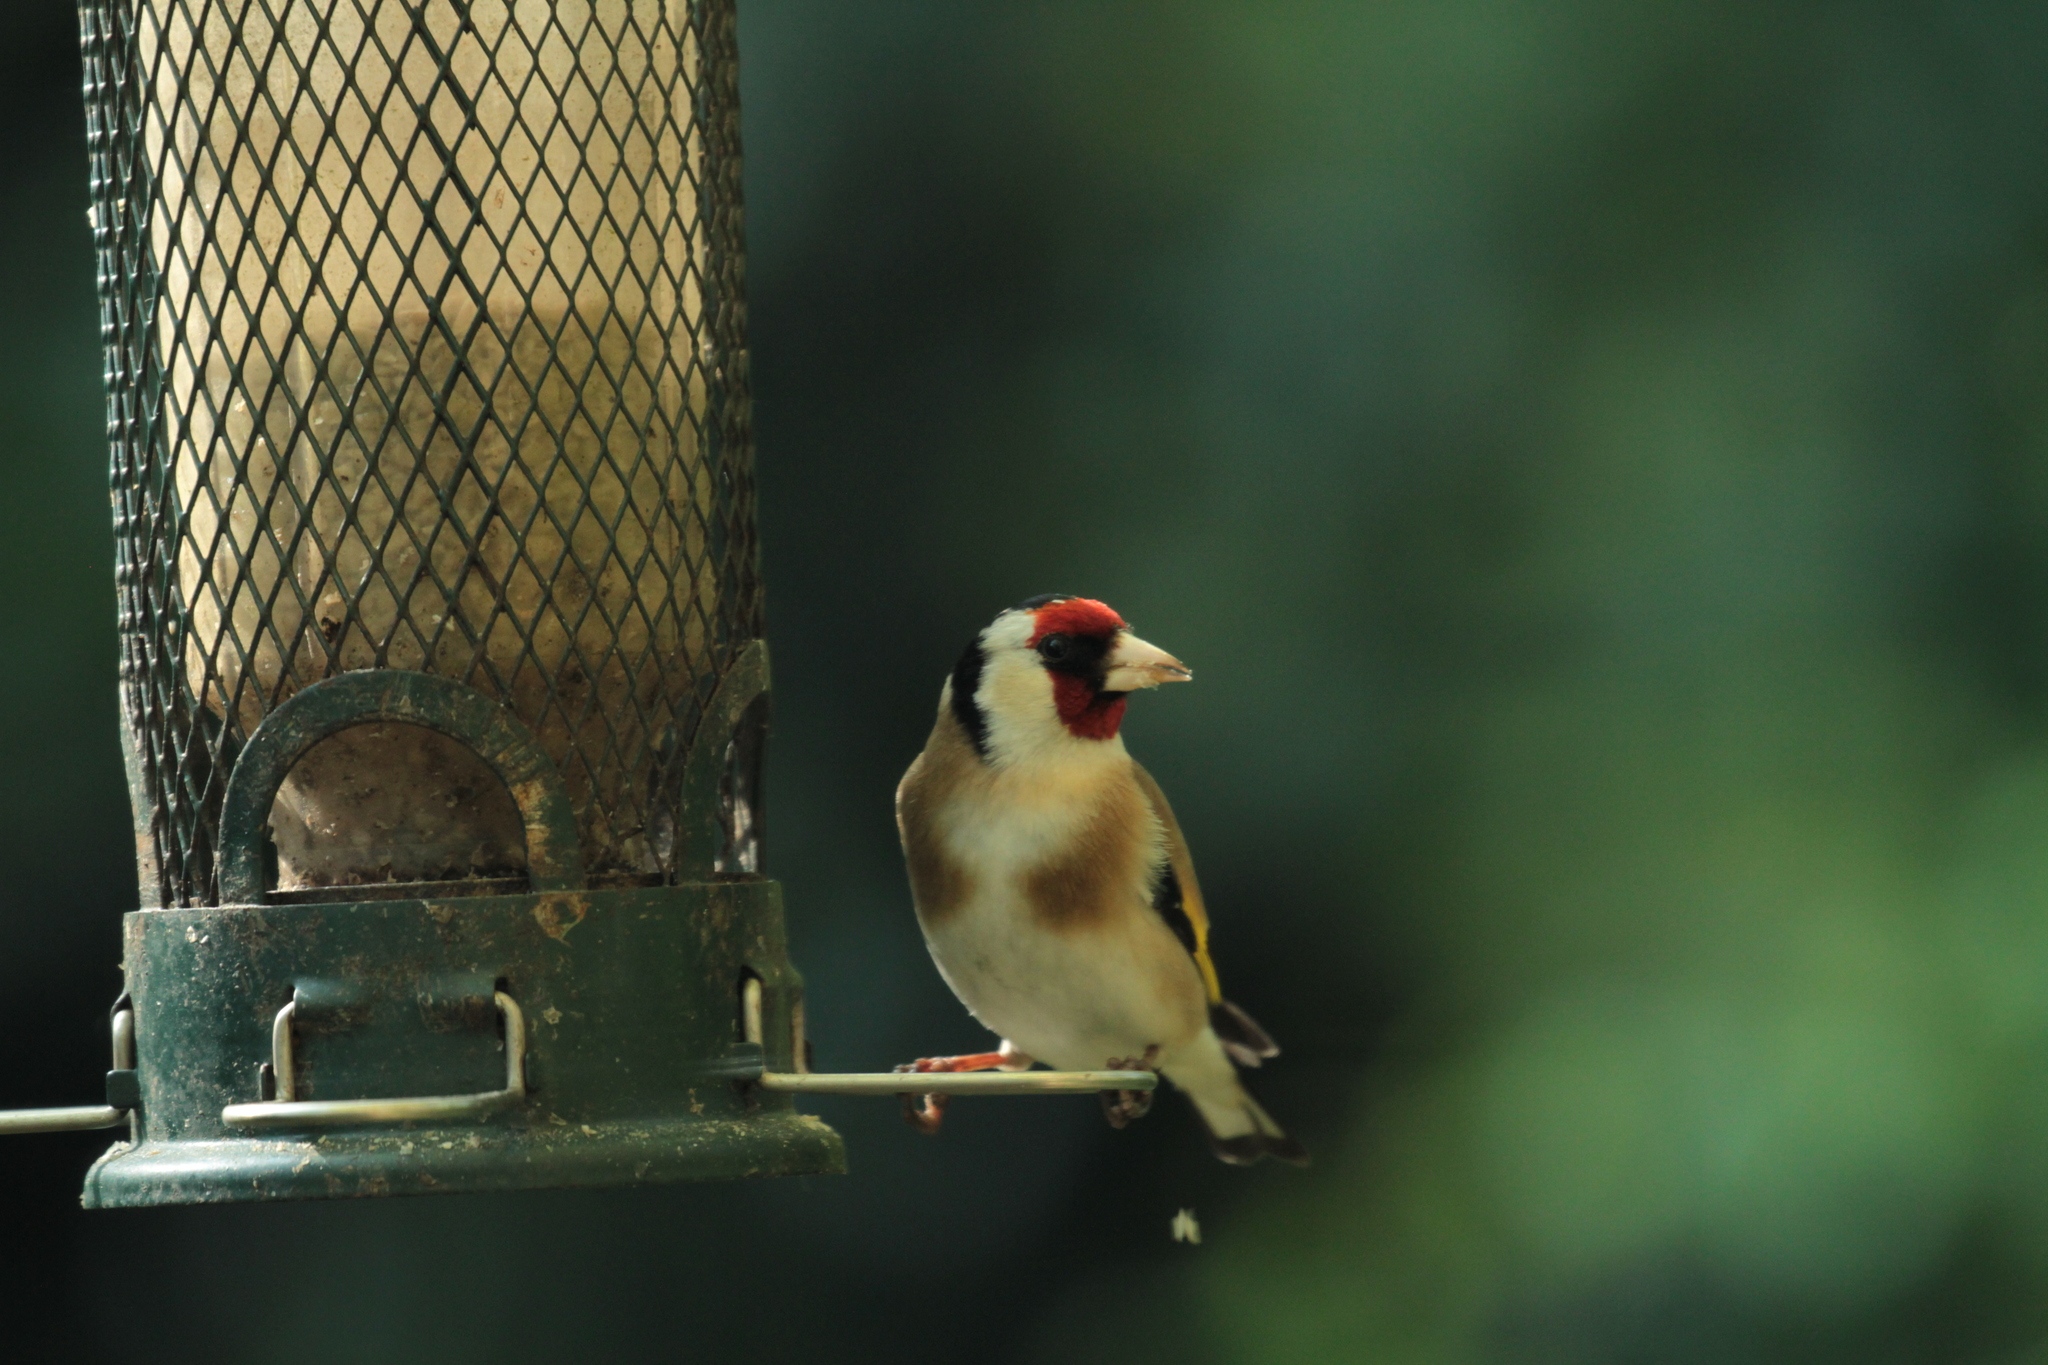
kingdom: Animalia
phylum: Chordata
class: Aves
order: Passeriformes
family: Fringillidae
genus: Carduelis
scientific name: Carduelis carduelis
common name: European goldfinch
